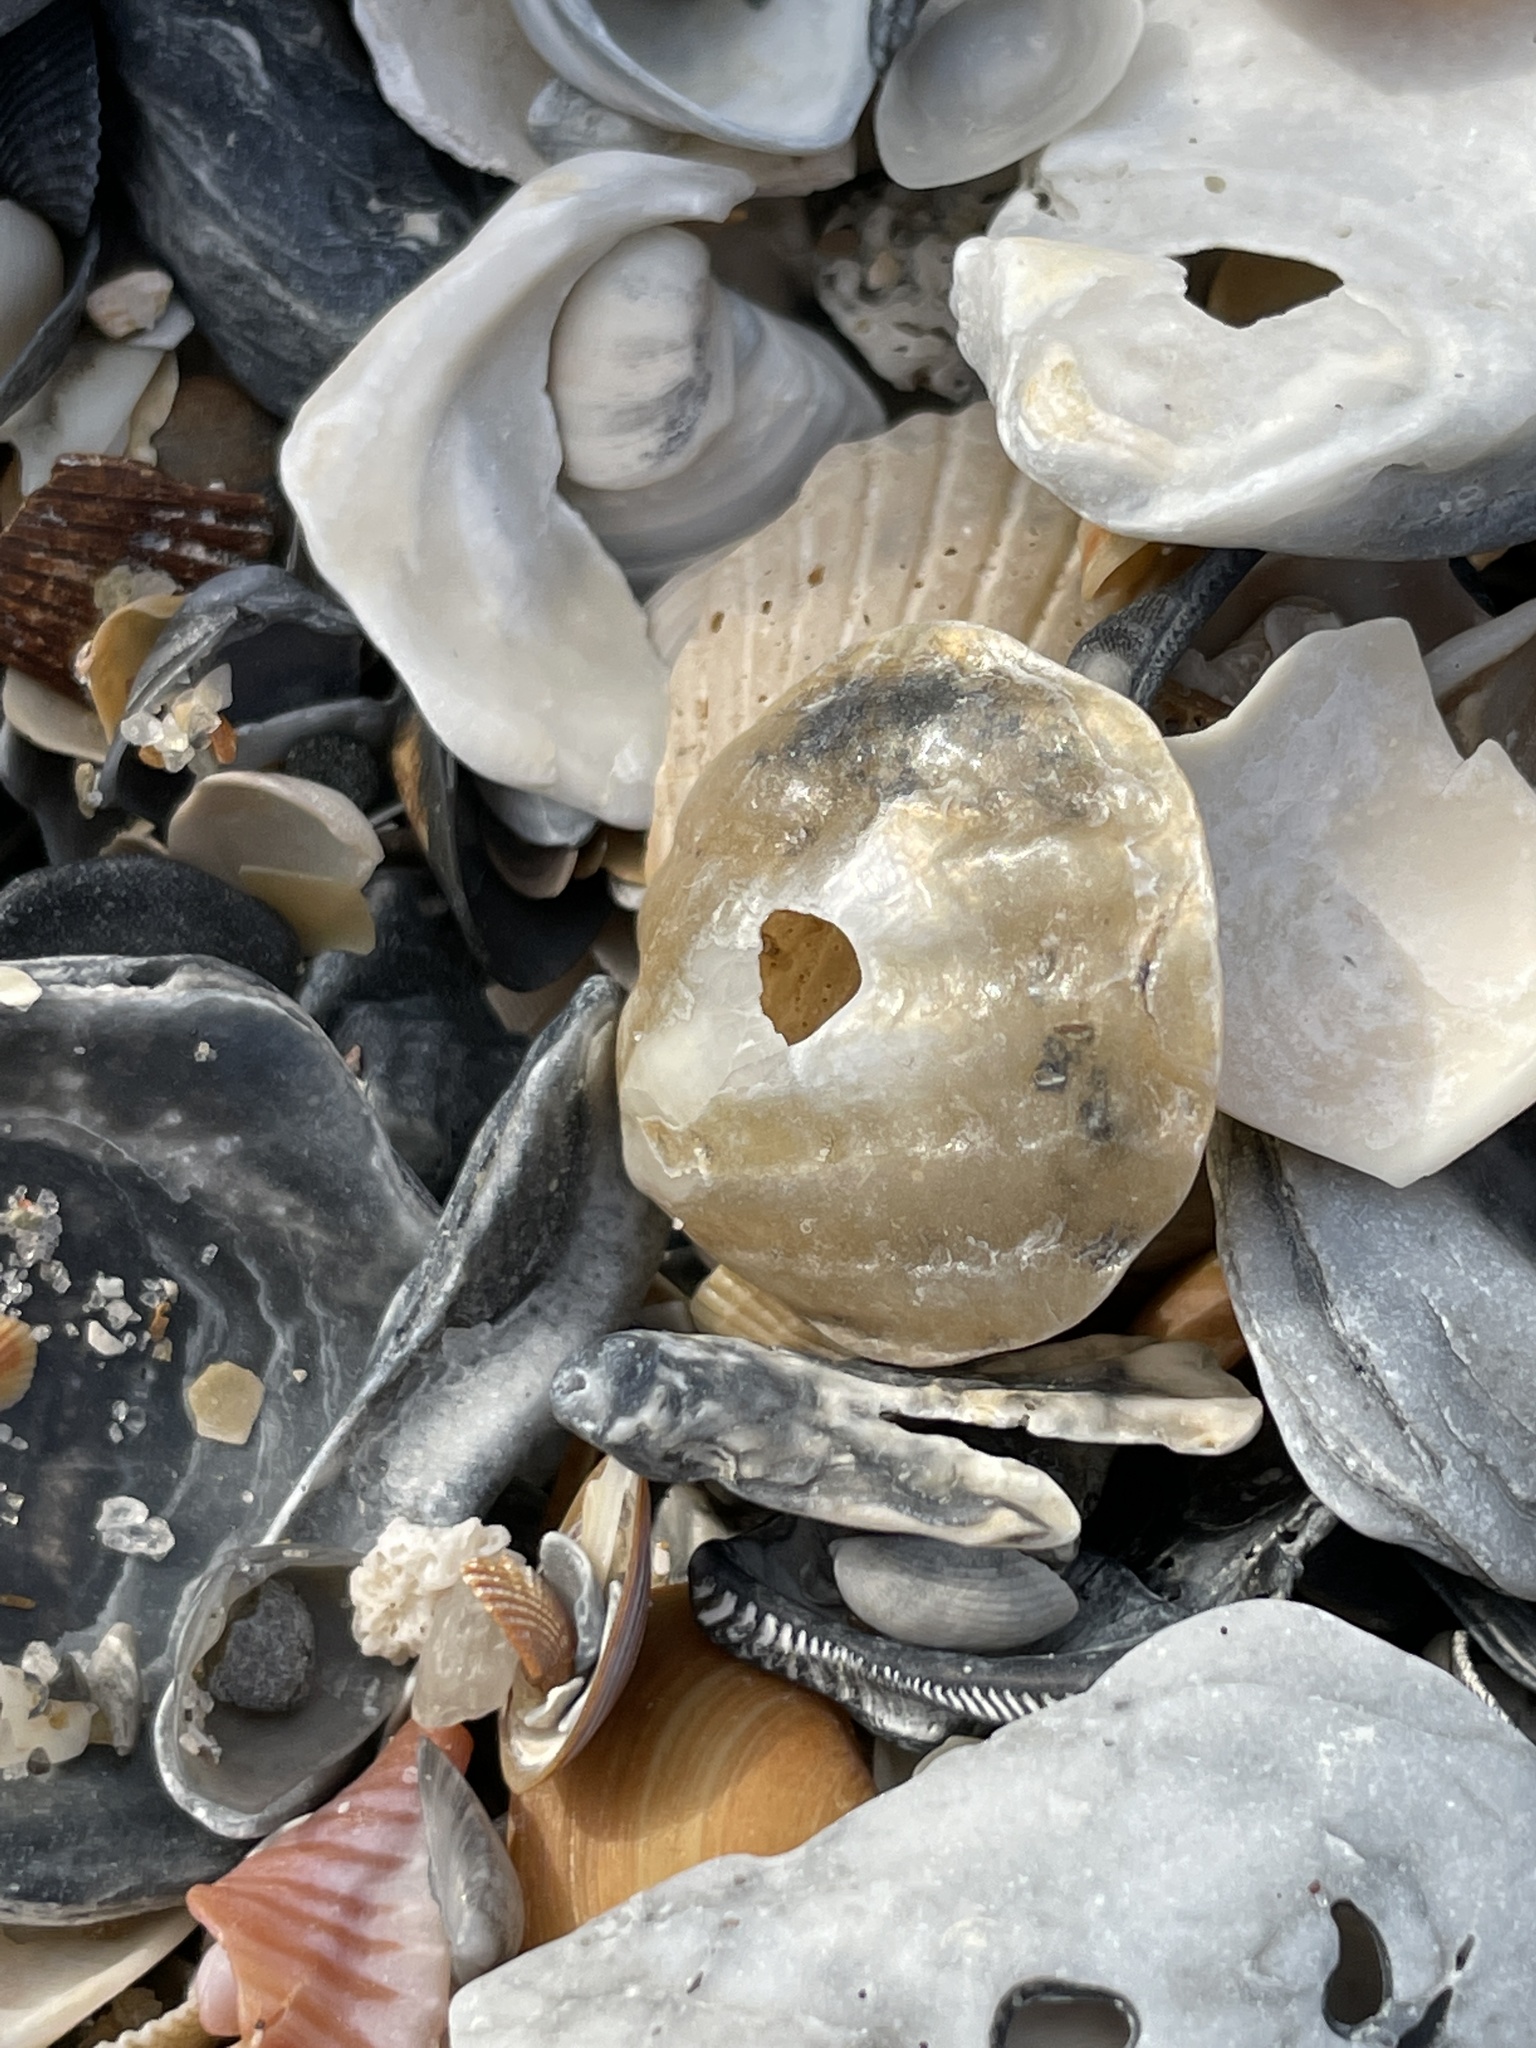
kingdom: Animalia
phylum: Mollusca
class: Bivalvia
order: Pectinida
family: Anomiidae
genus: Anomia
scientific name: Anomia simplex
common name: Common jingle shell
